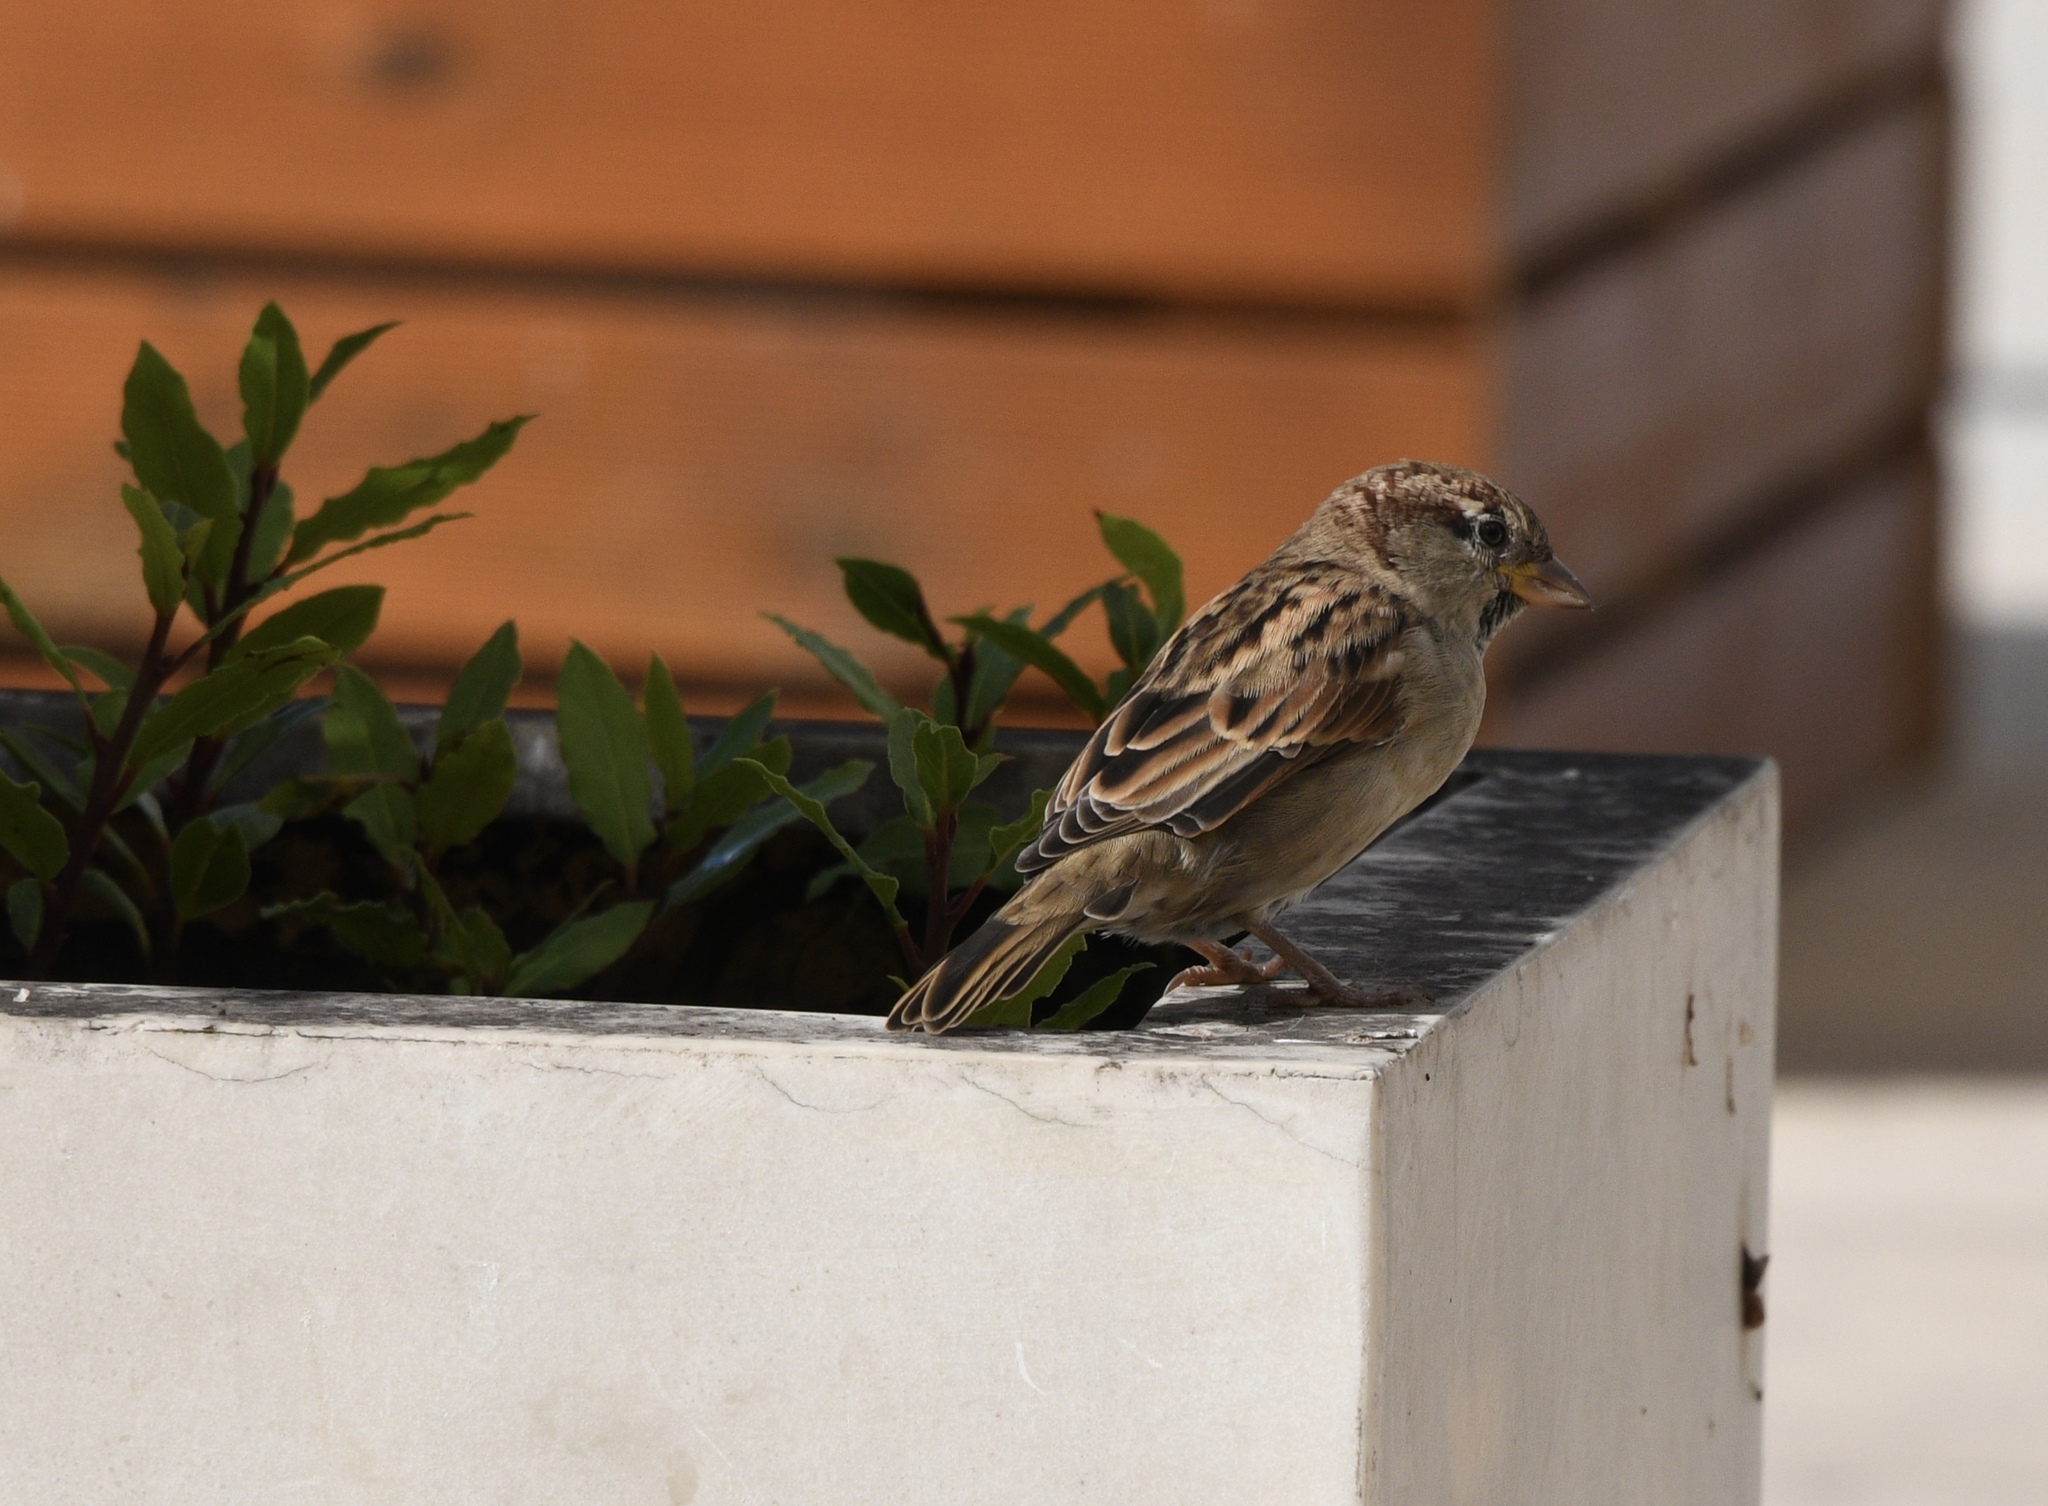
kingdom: Animalia
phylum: Chordata
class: Aves
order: Passeriformes
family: Passeridae
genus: Passer
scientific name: Passer domesticus
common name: House sparrow
